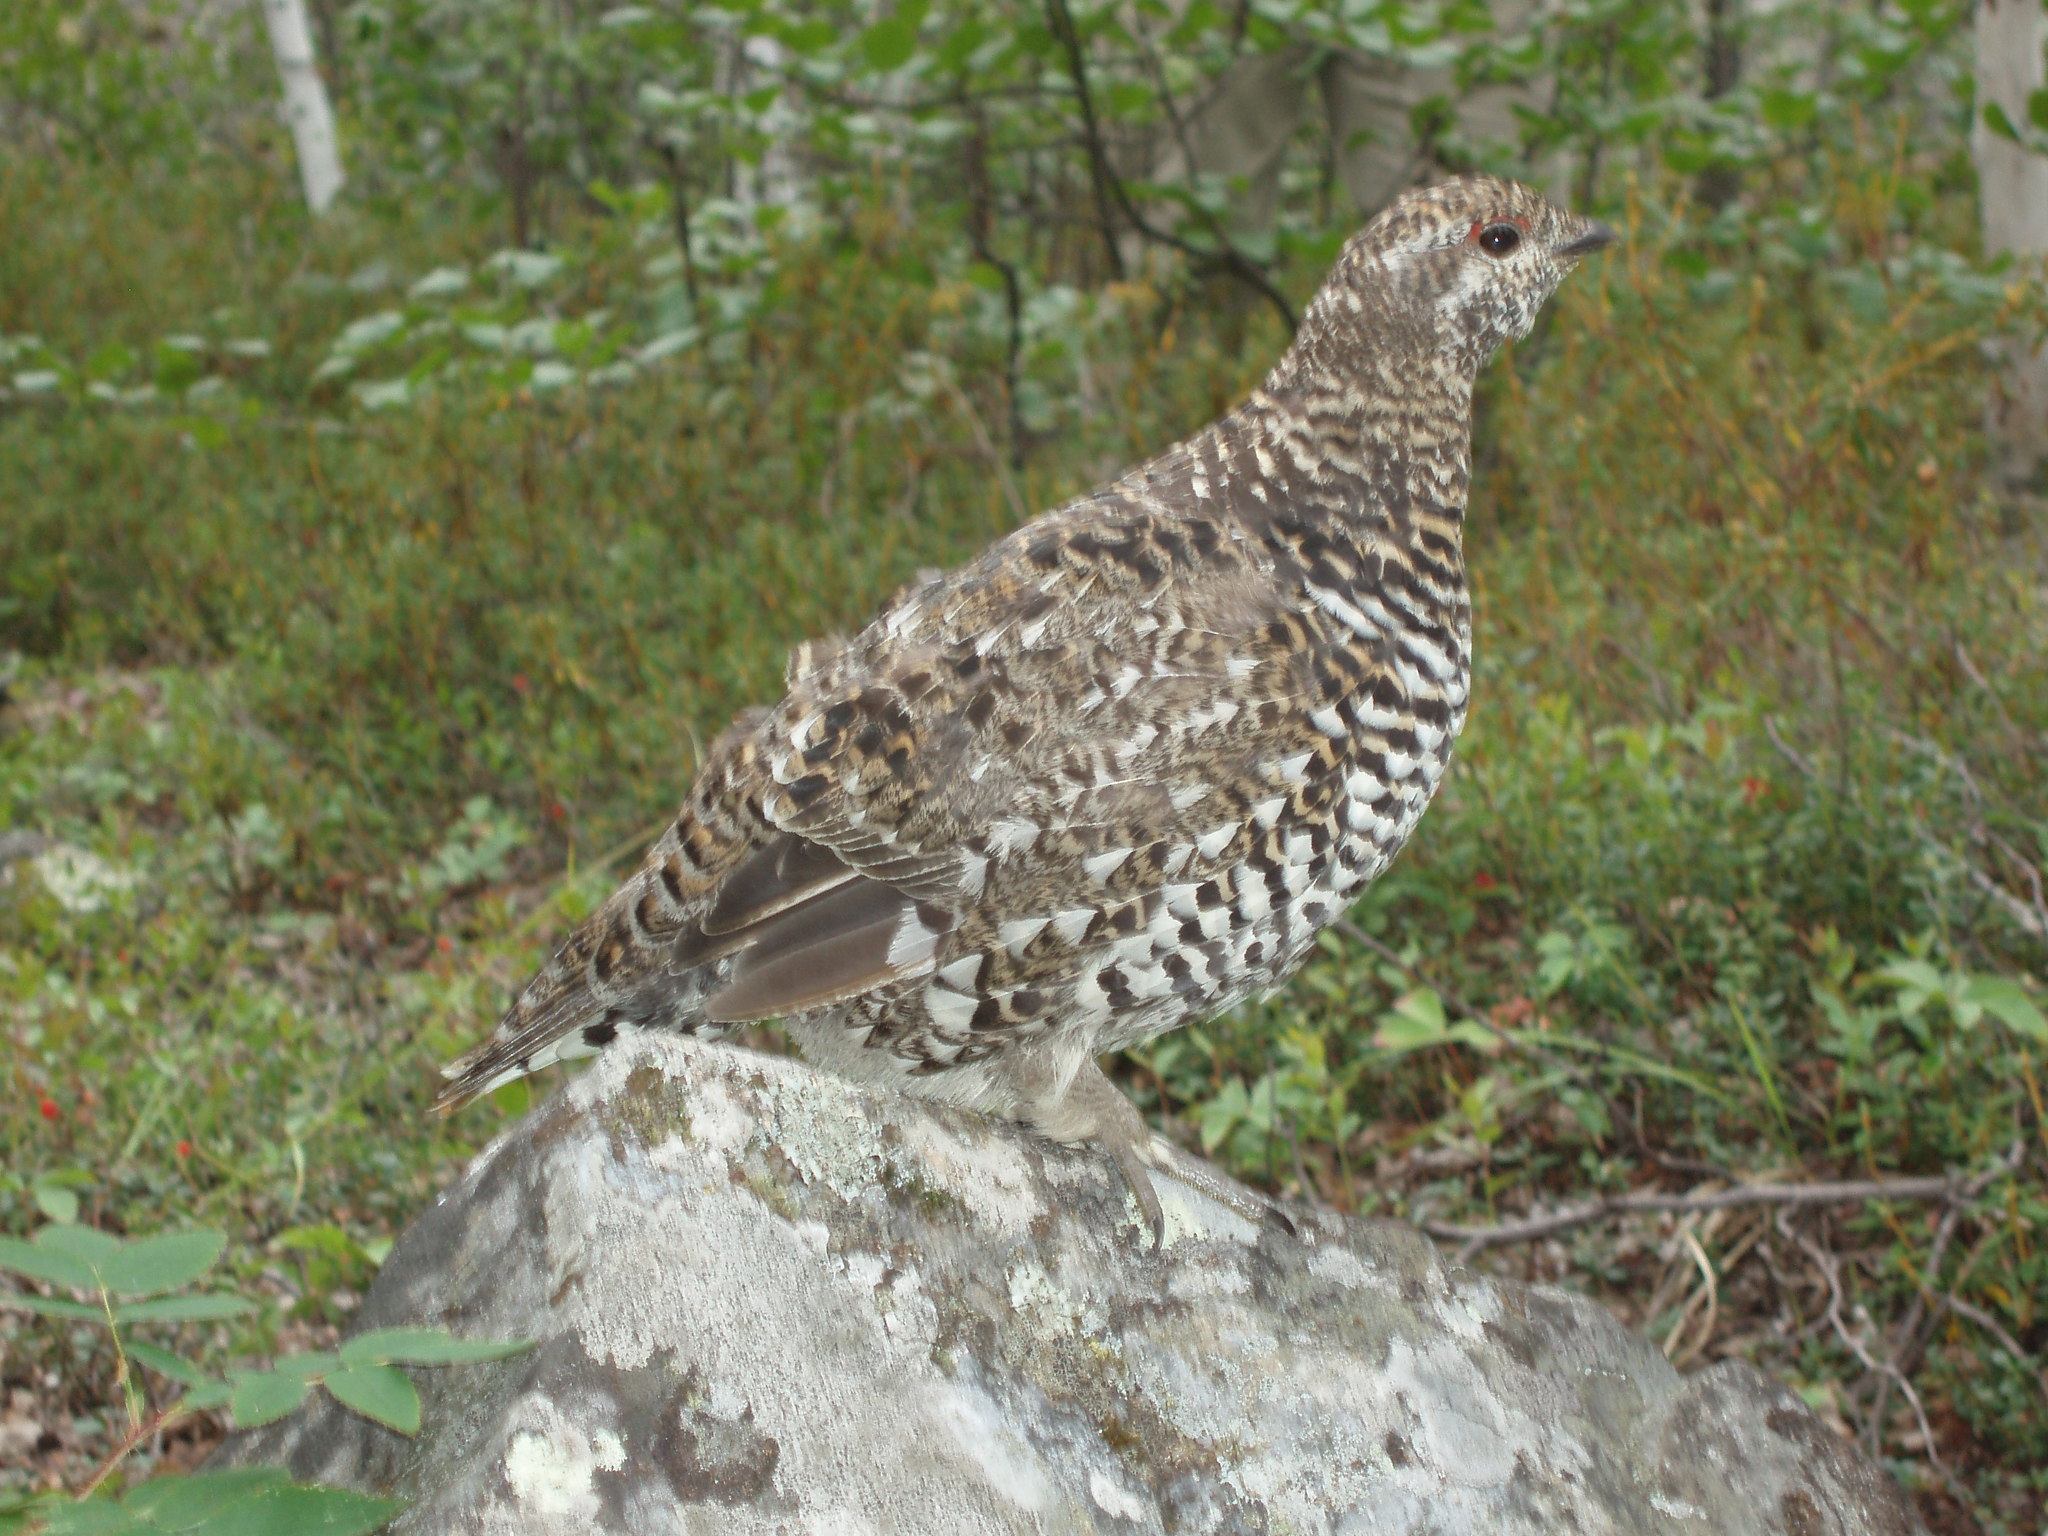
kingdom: Animalia
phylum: Chordata
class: Aves
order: Galliformes
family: Phasianidae
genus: Canachites
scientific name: Canachites canadensis
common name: Spruce grouse
